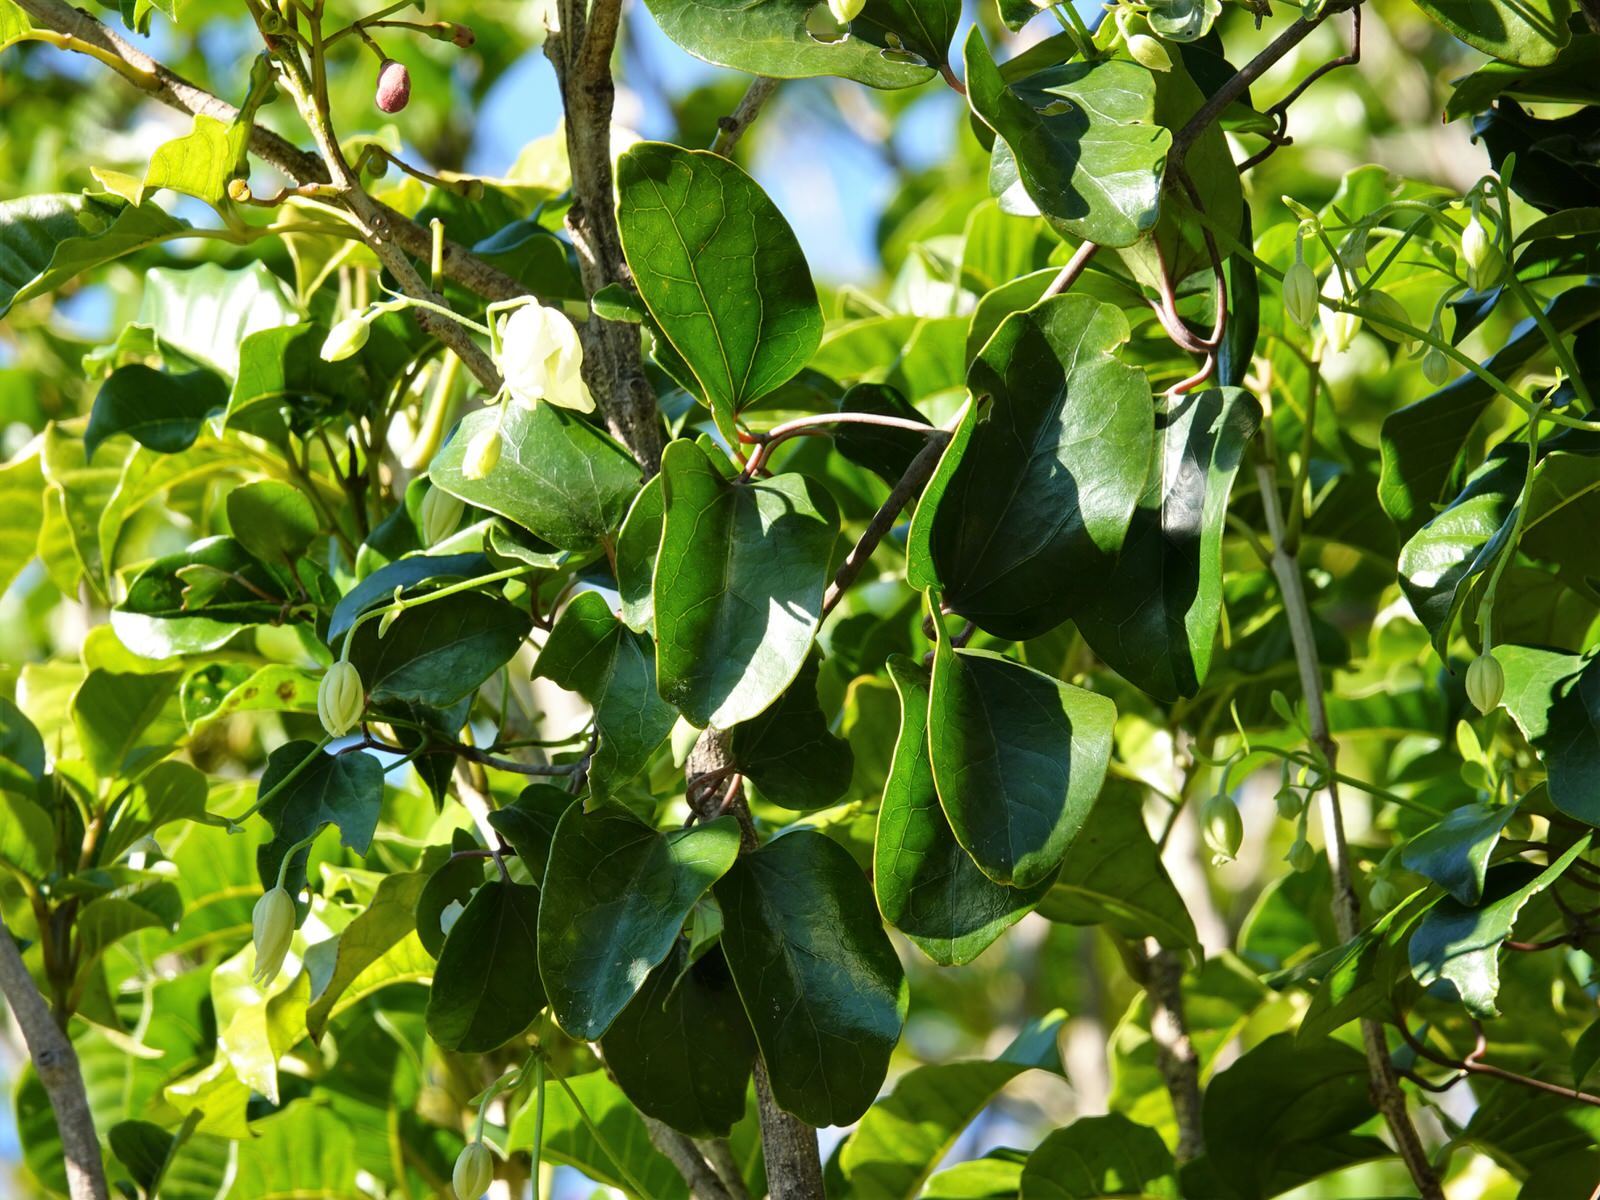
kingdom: Plantae
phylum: Tracheophyta
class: Magnoliopsida
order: Ranunculales
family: Ranunculaceae
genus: Clematis
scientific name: Clematis paniculata
